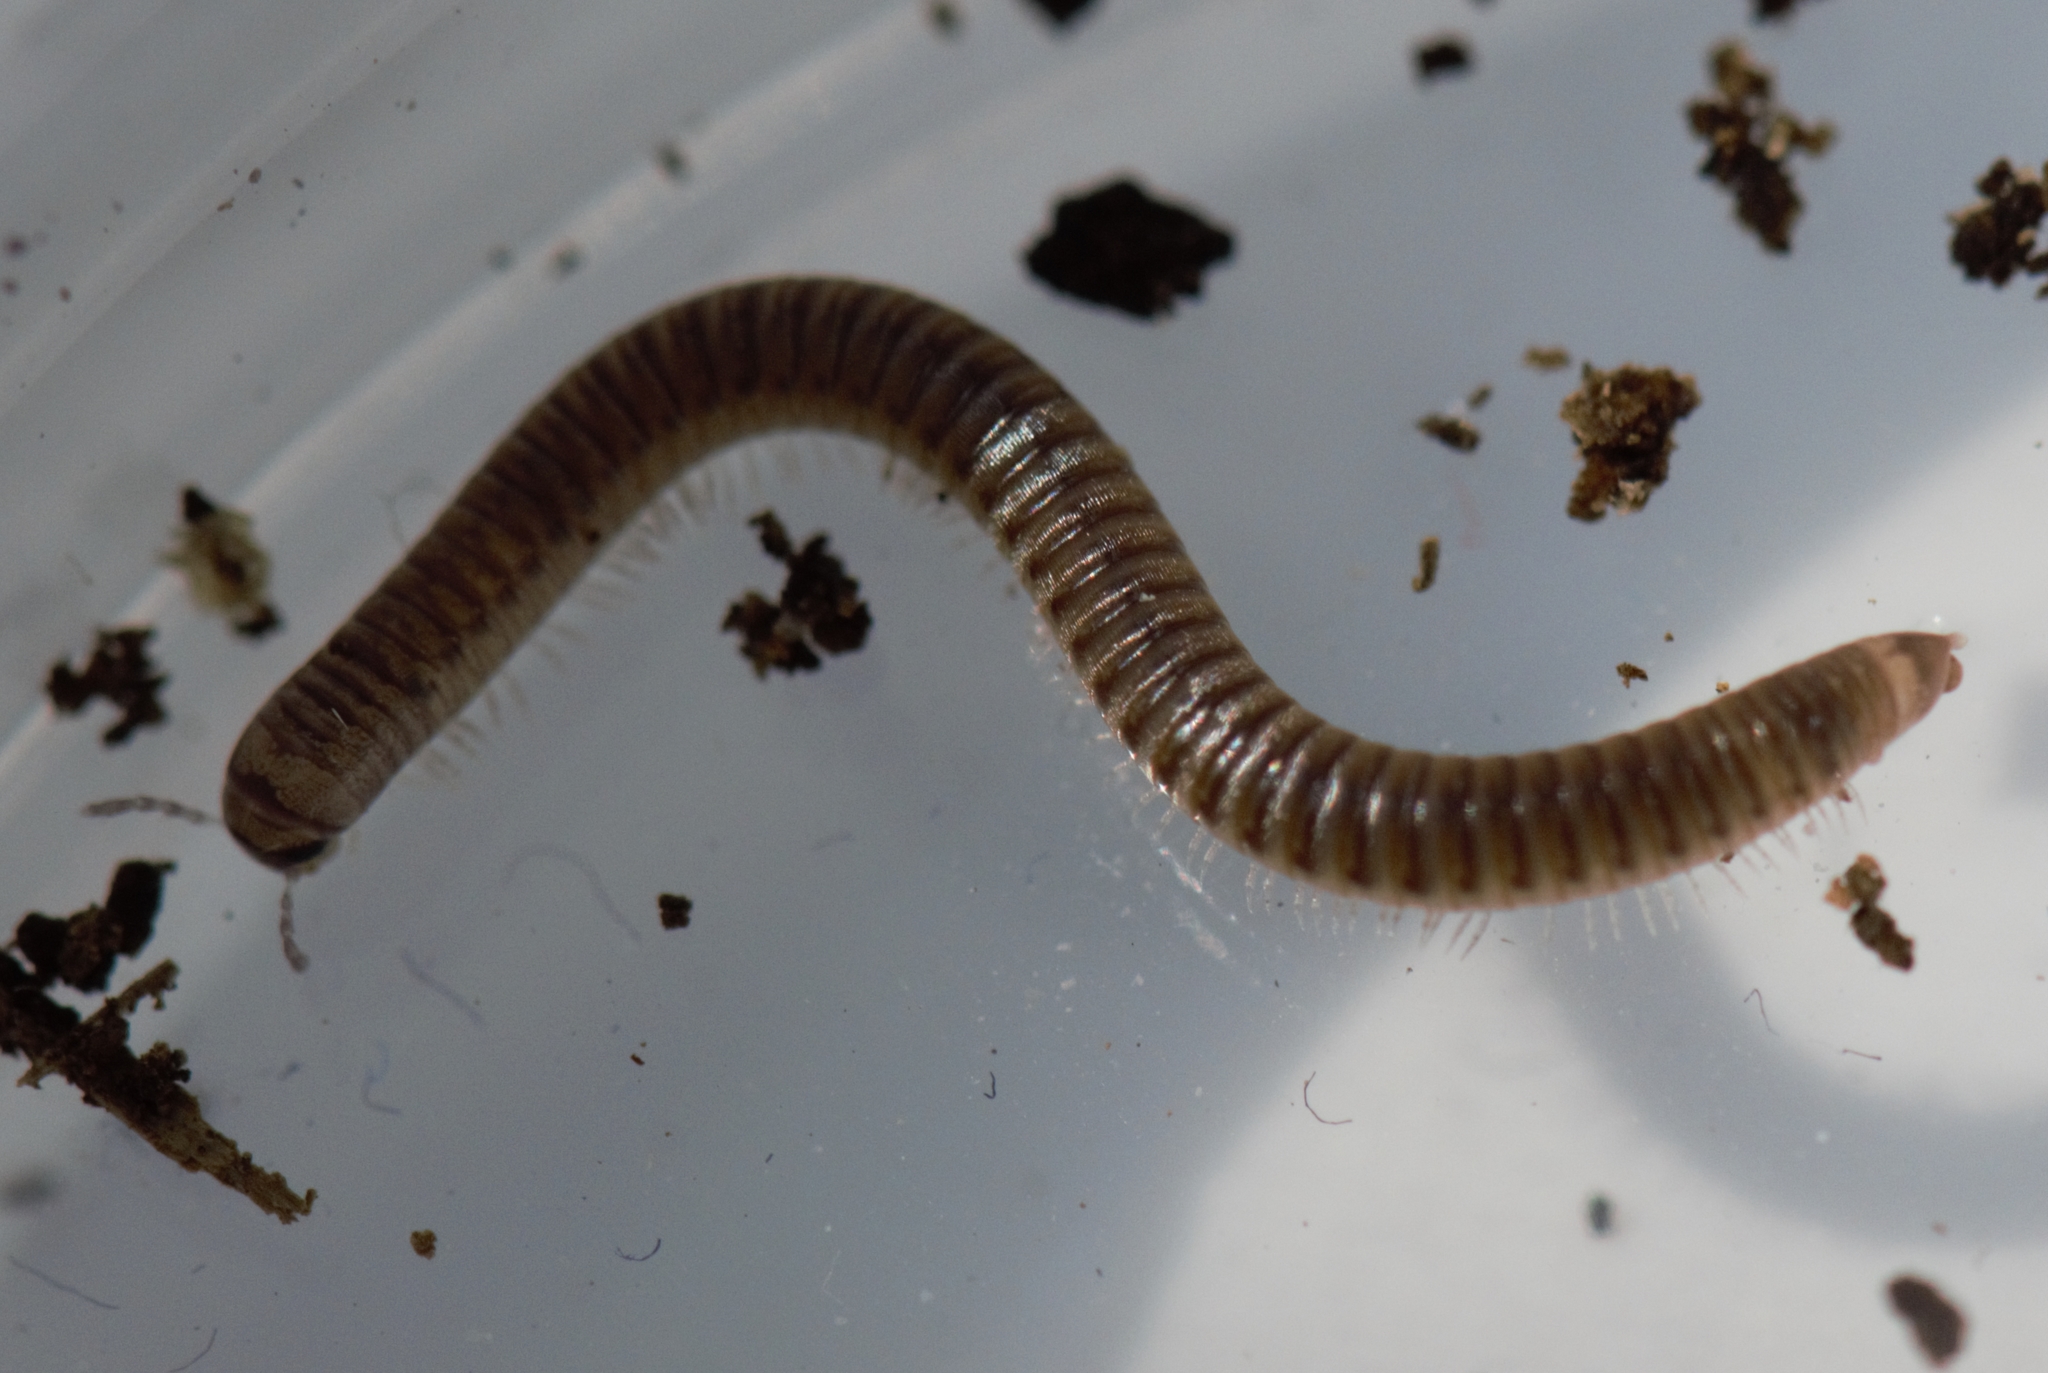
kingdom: Animalia
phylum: Arthropoda
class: Diplopoda
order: Julida
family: Julidae
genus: Cylindroiulus
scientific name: Cylindroiulus punctatus
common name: Blunt-tailed millipede
